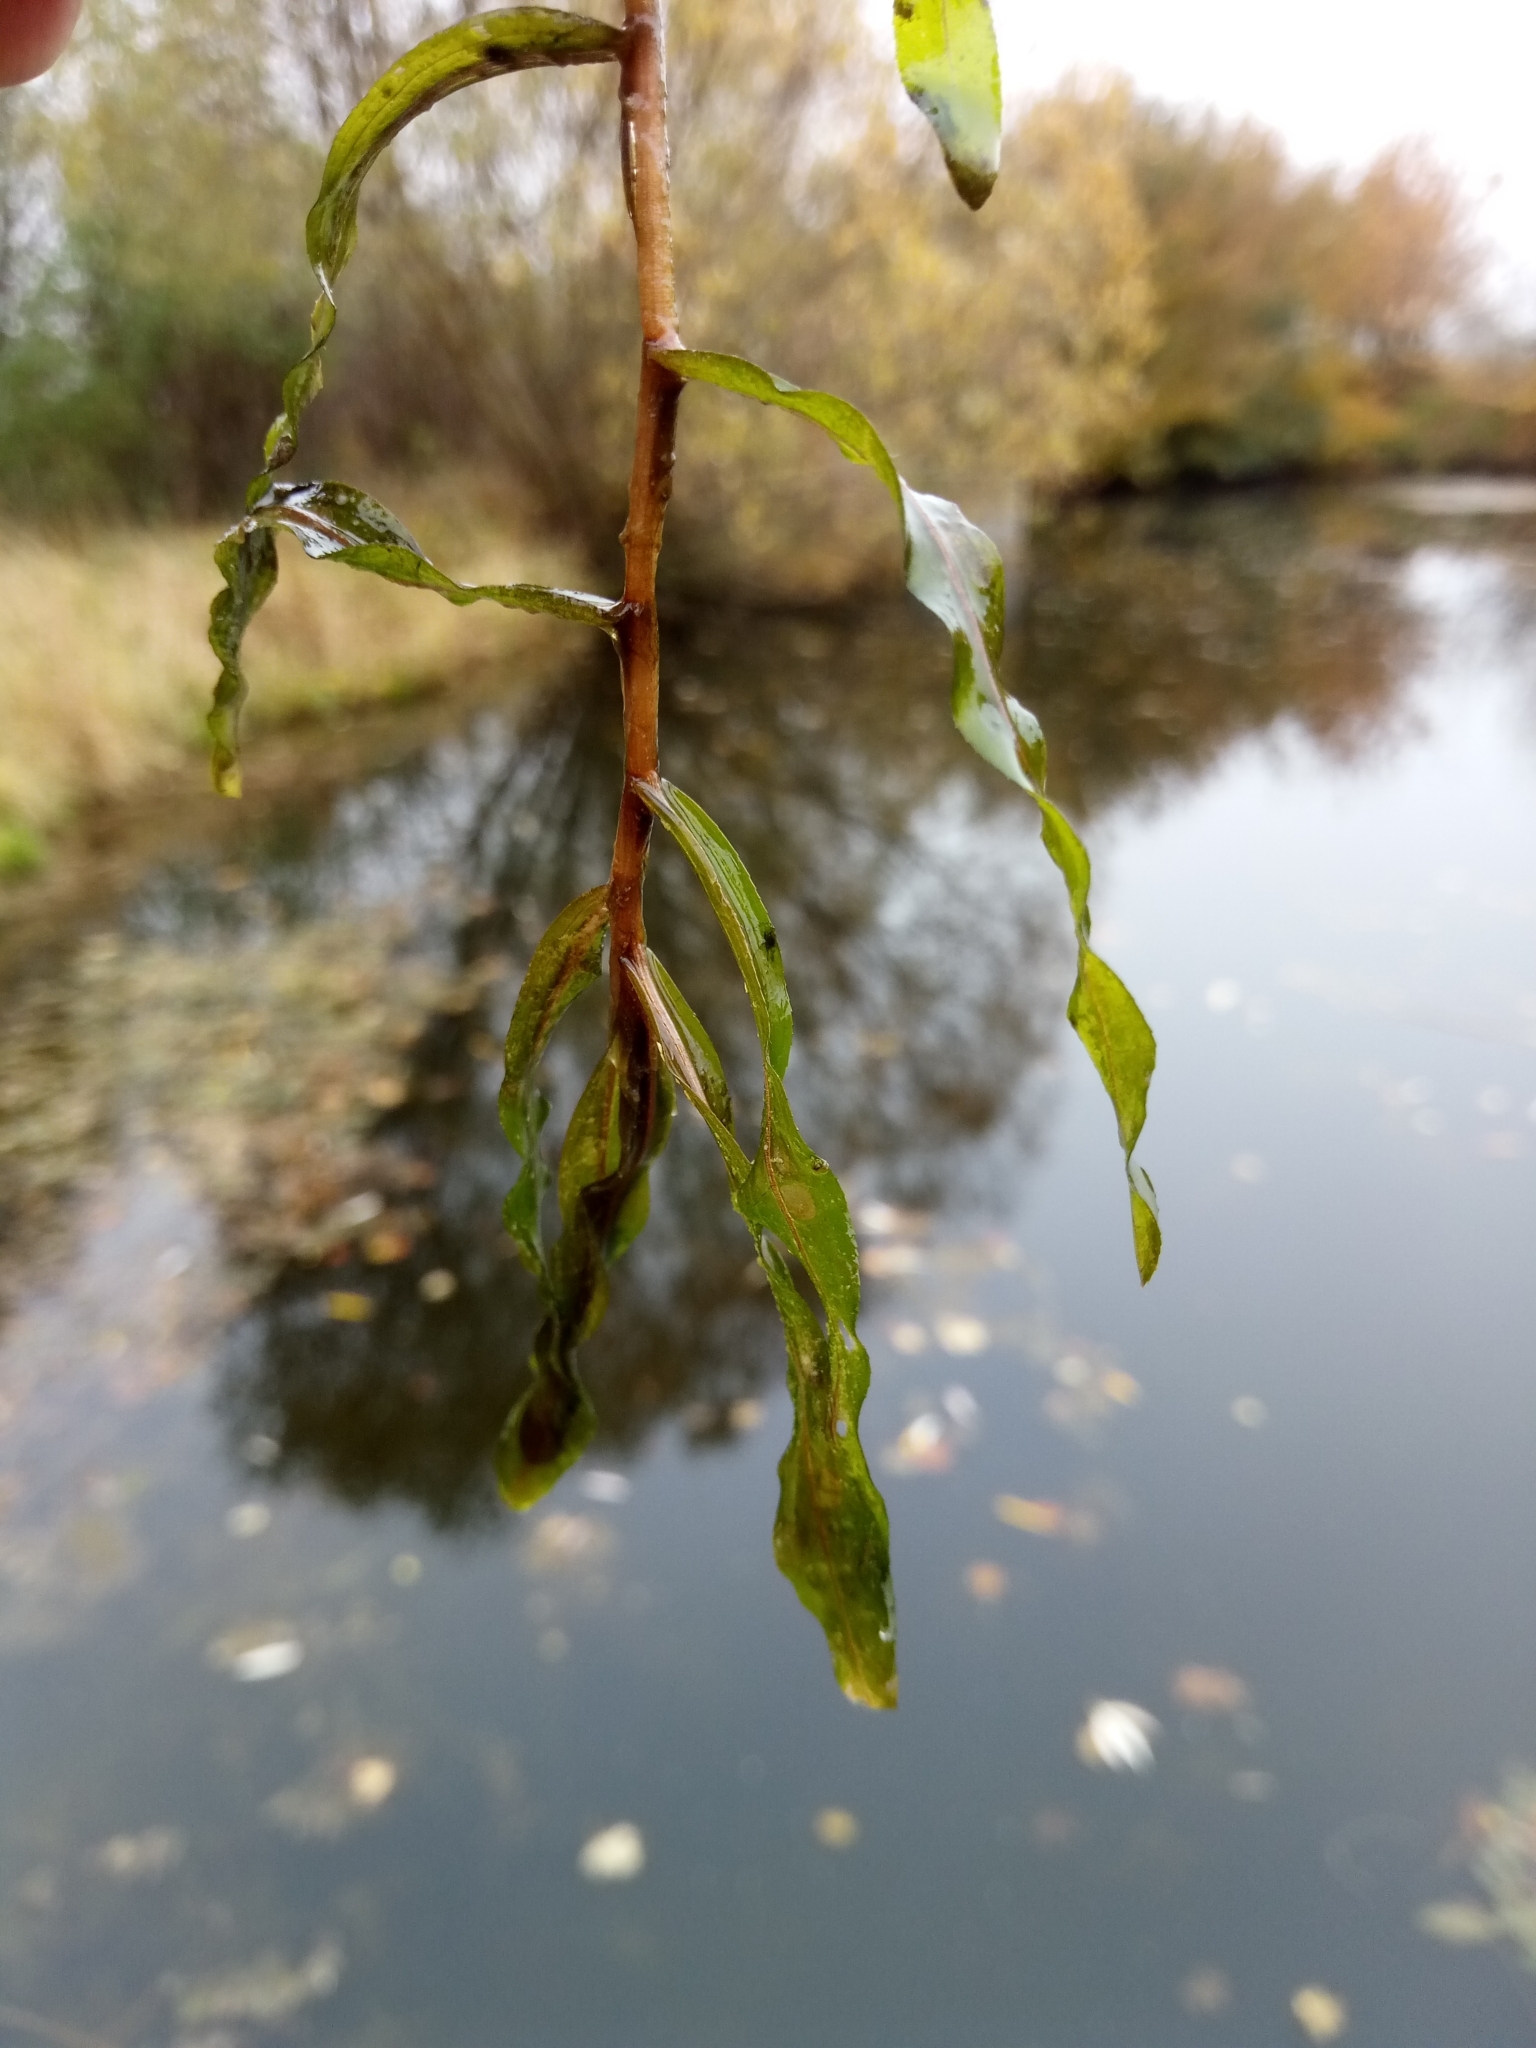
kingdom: Plantae
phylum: Tracheophyta
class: Liliopsida
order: Alismatales
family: Potamogetonaceae
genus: Potamogeton
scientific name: Potamogeton crispus
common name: Curled pondweed
